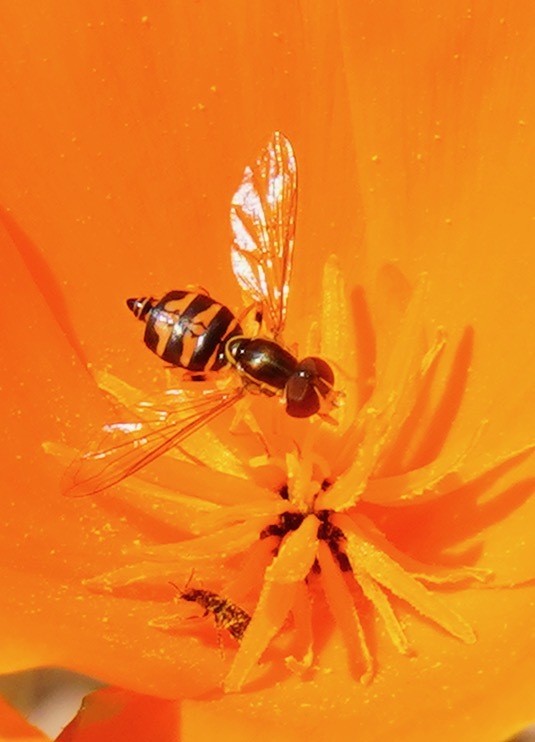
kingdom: Animalia
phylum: Arthropoda
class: Insecta
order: Diptera
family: Syrphidae
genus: Toxomerus
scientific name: Toxomerus occidentalis
